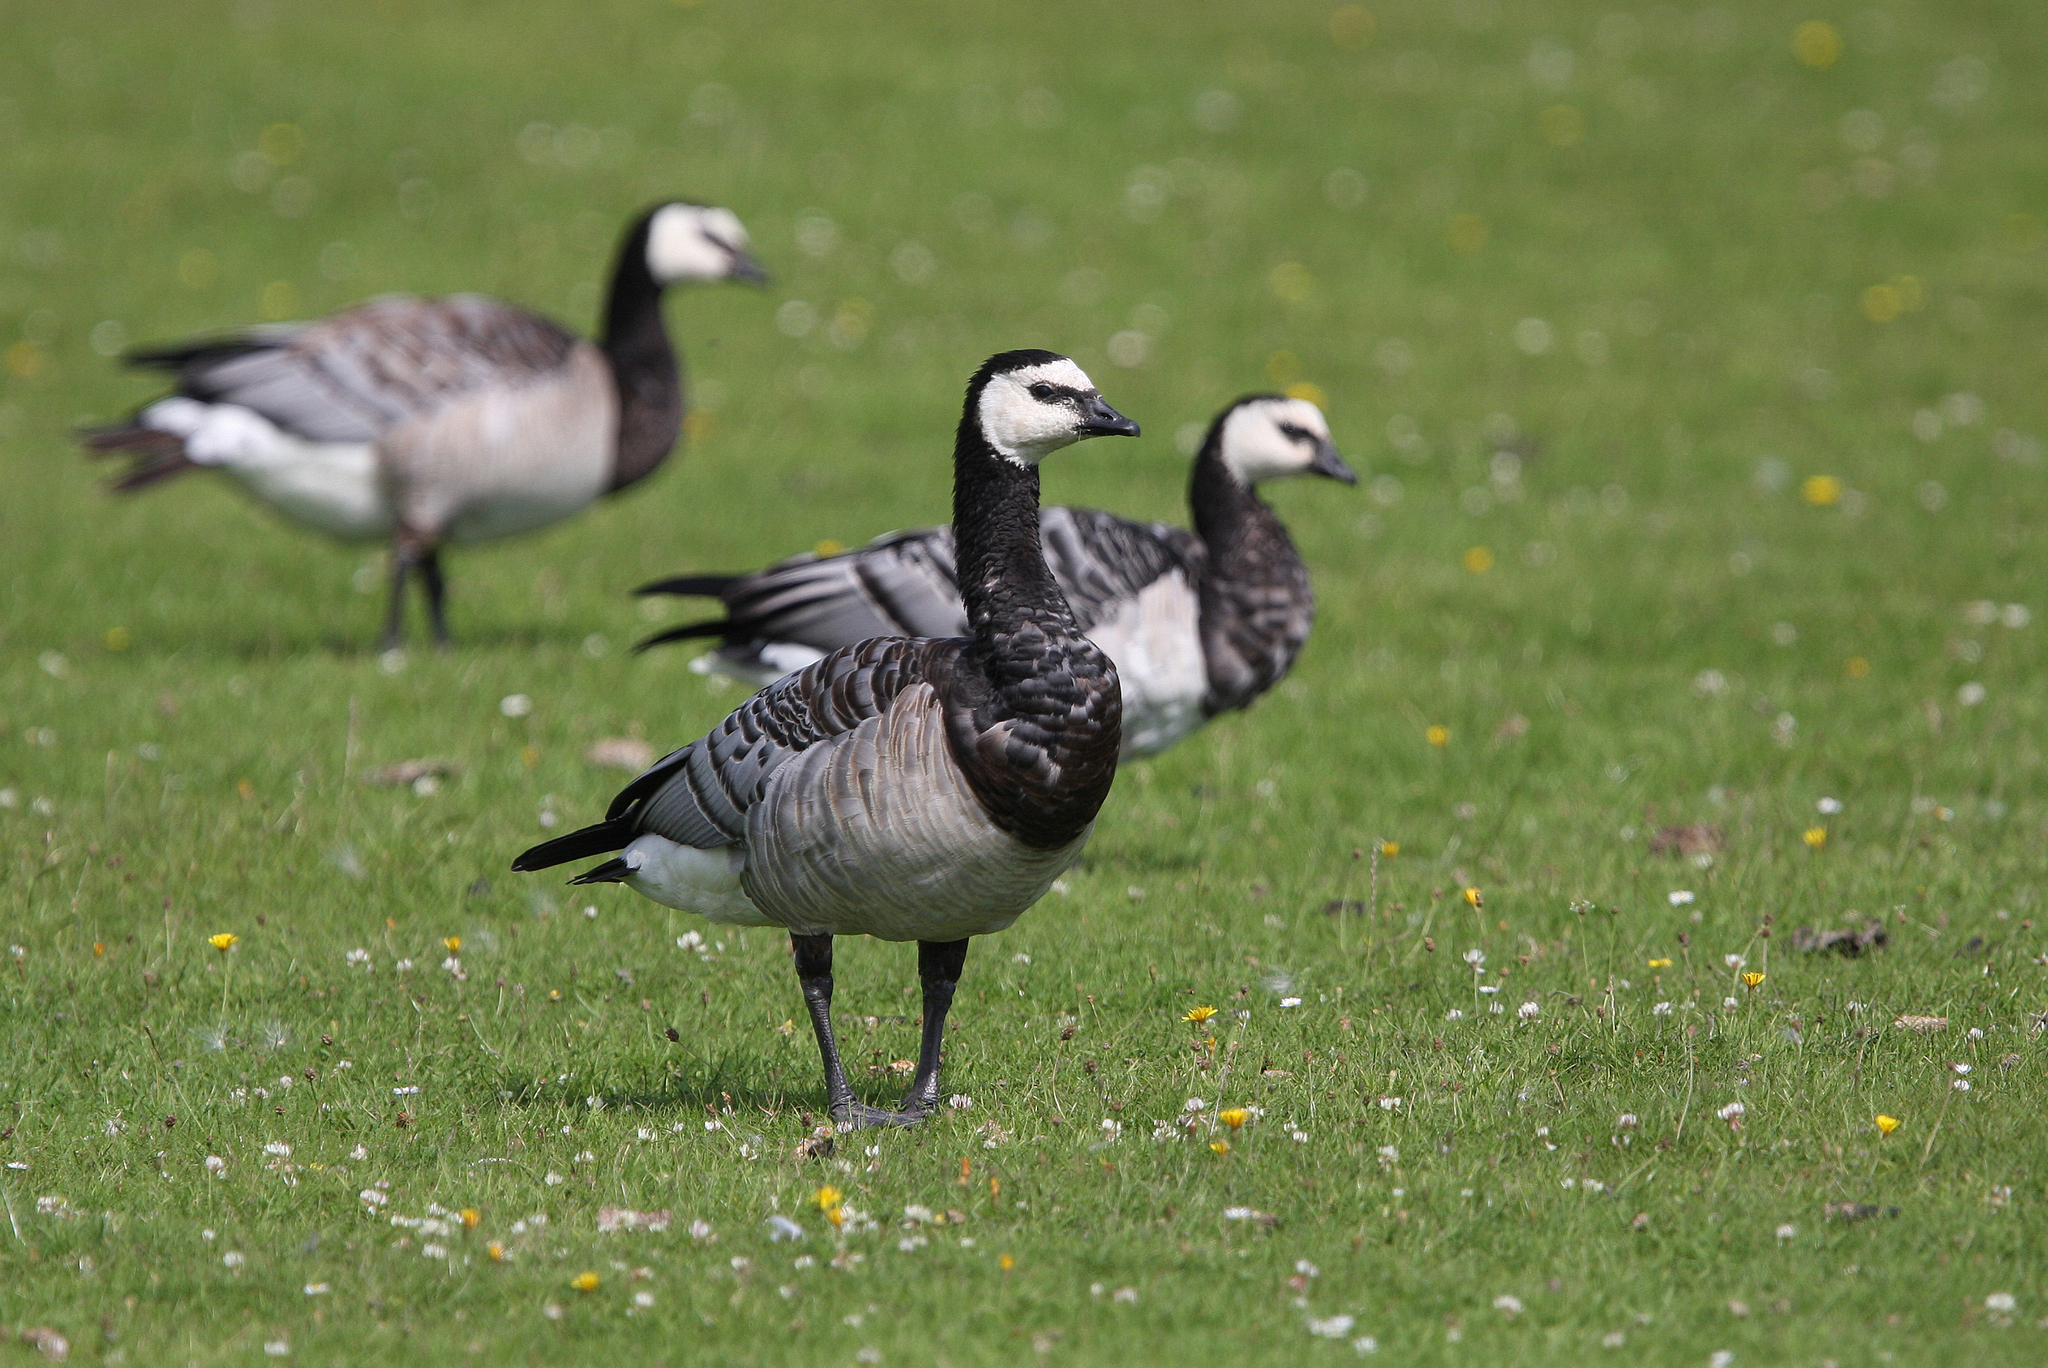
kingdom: Animalia
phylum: Chordata
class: Aves
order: Anseriformes
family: Anatidae
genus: Branta
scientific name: Branta leucopsis
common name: Barnacle goose
